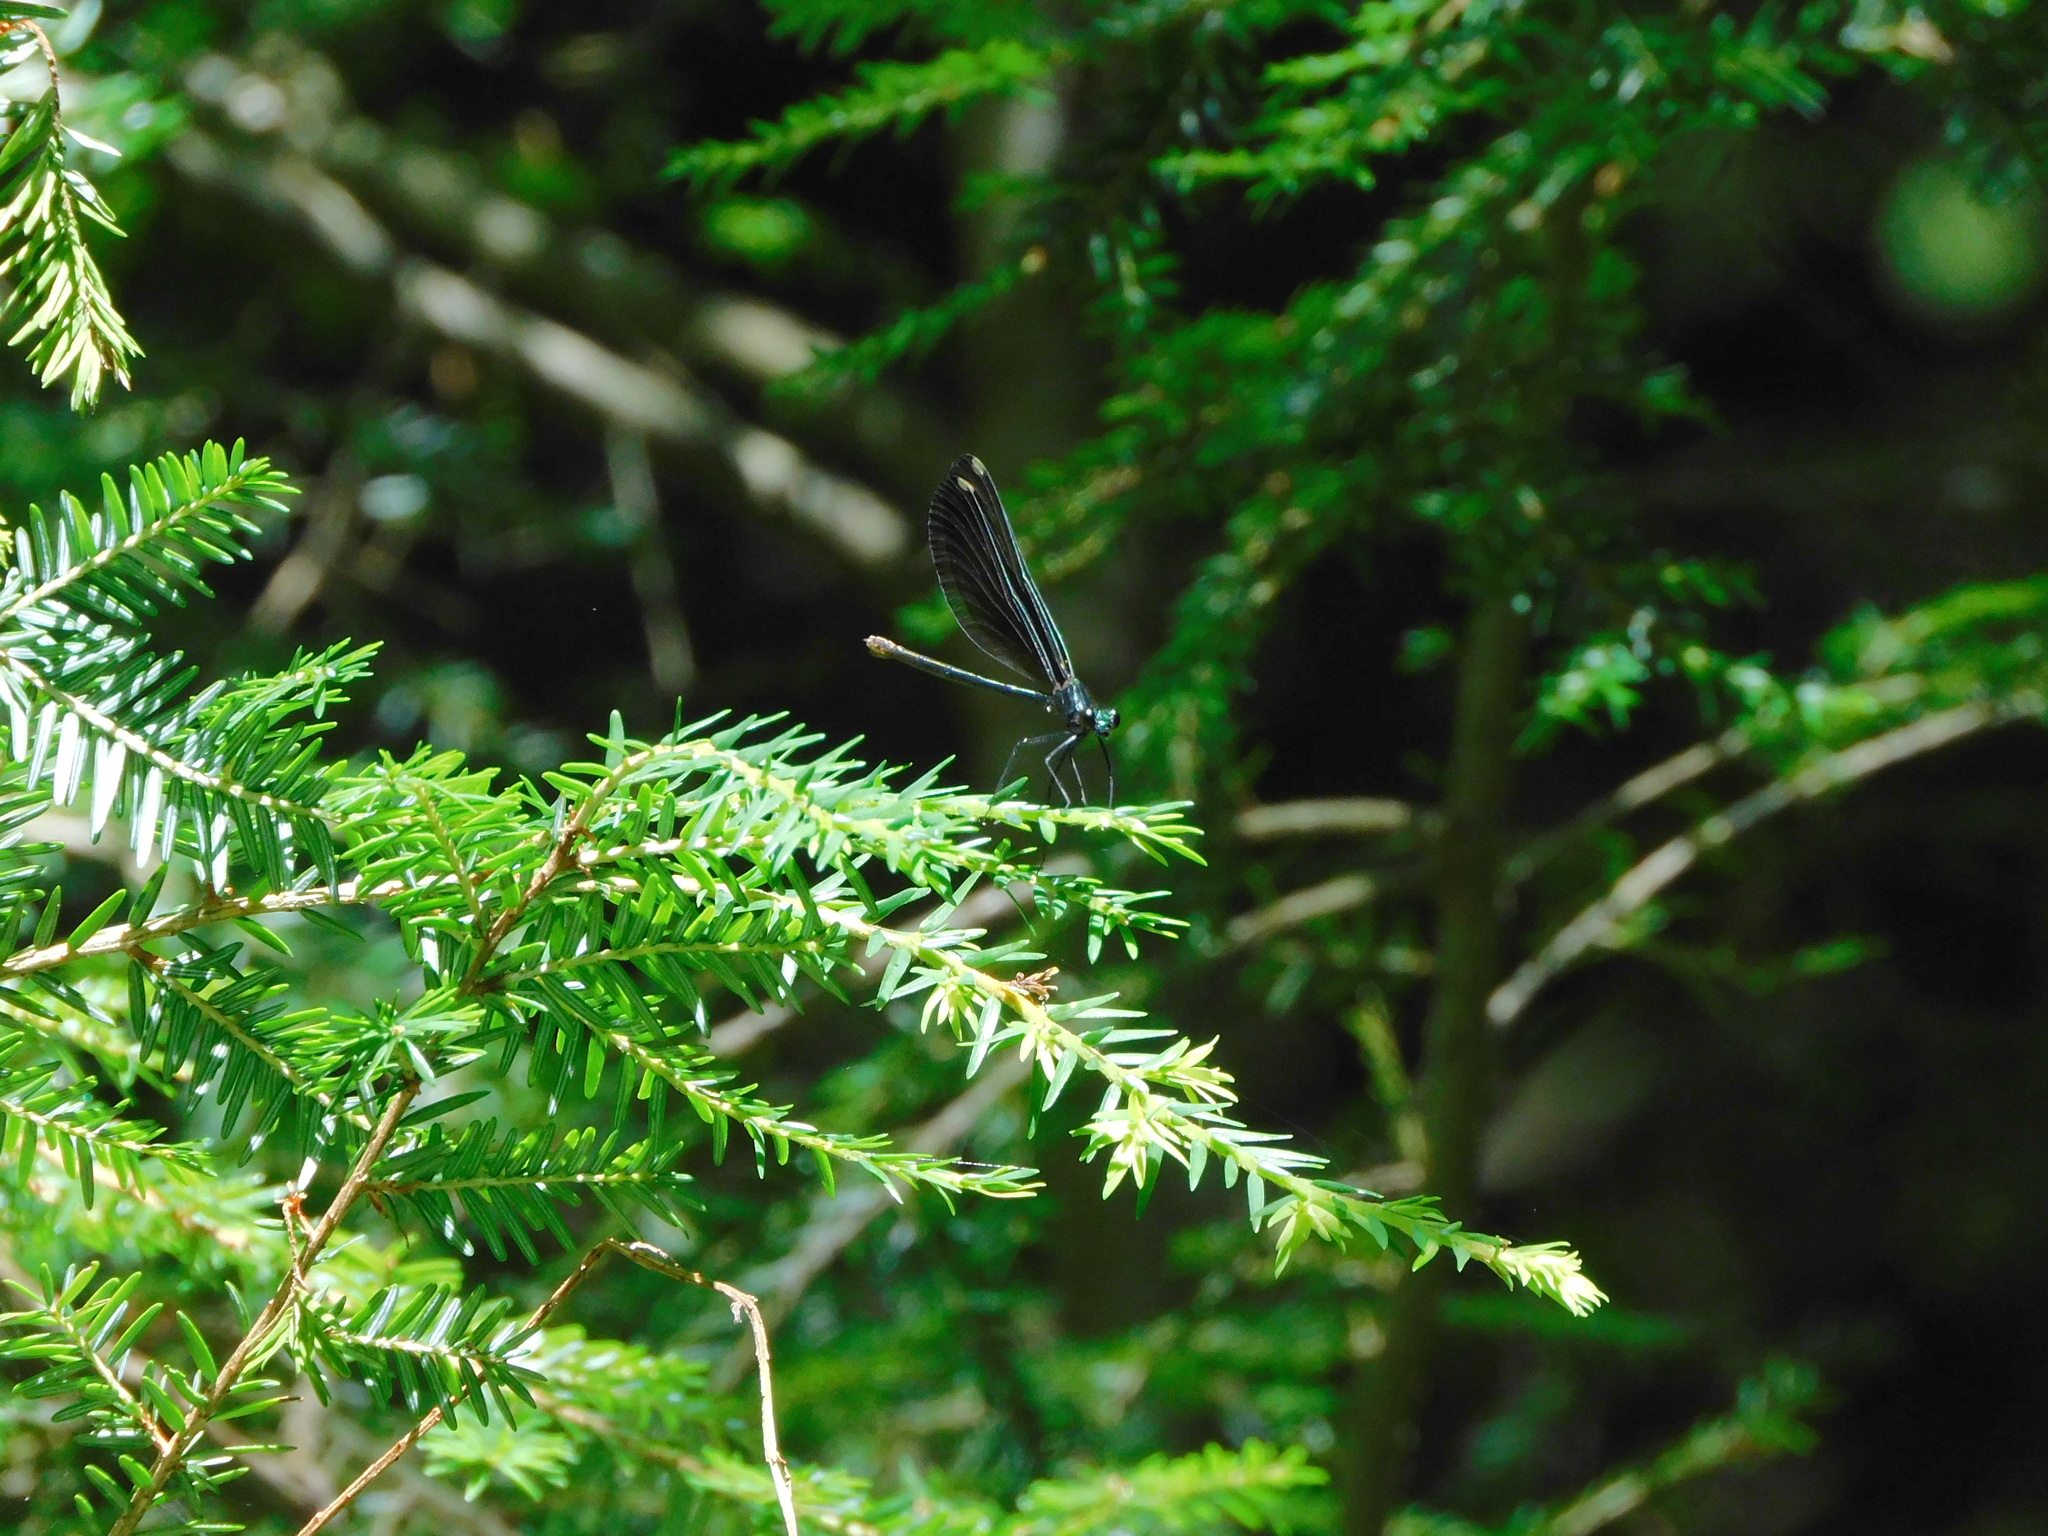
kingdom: Animalia
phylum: Arthropoda
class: Insecta
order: Odonata
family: Calopterygidae
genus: Calopteryx
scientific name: Calopteryx maculata
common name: Ebony jewelwing
